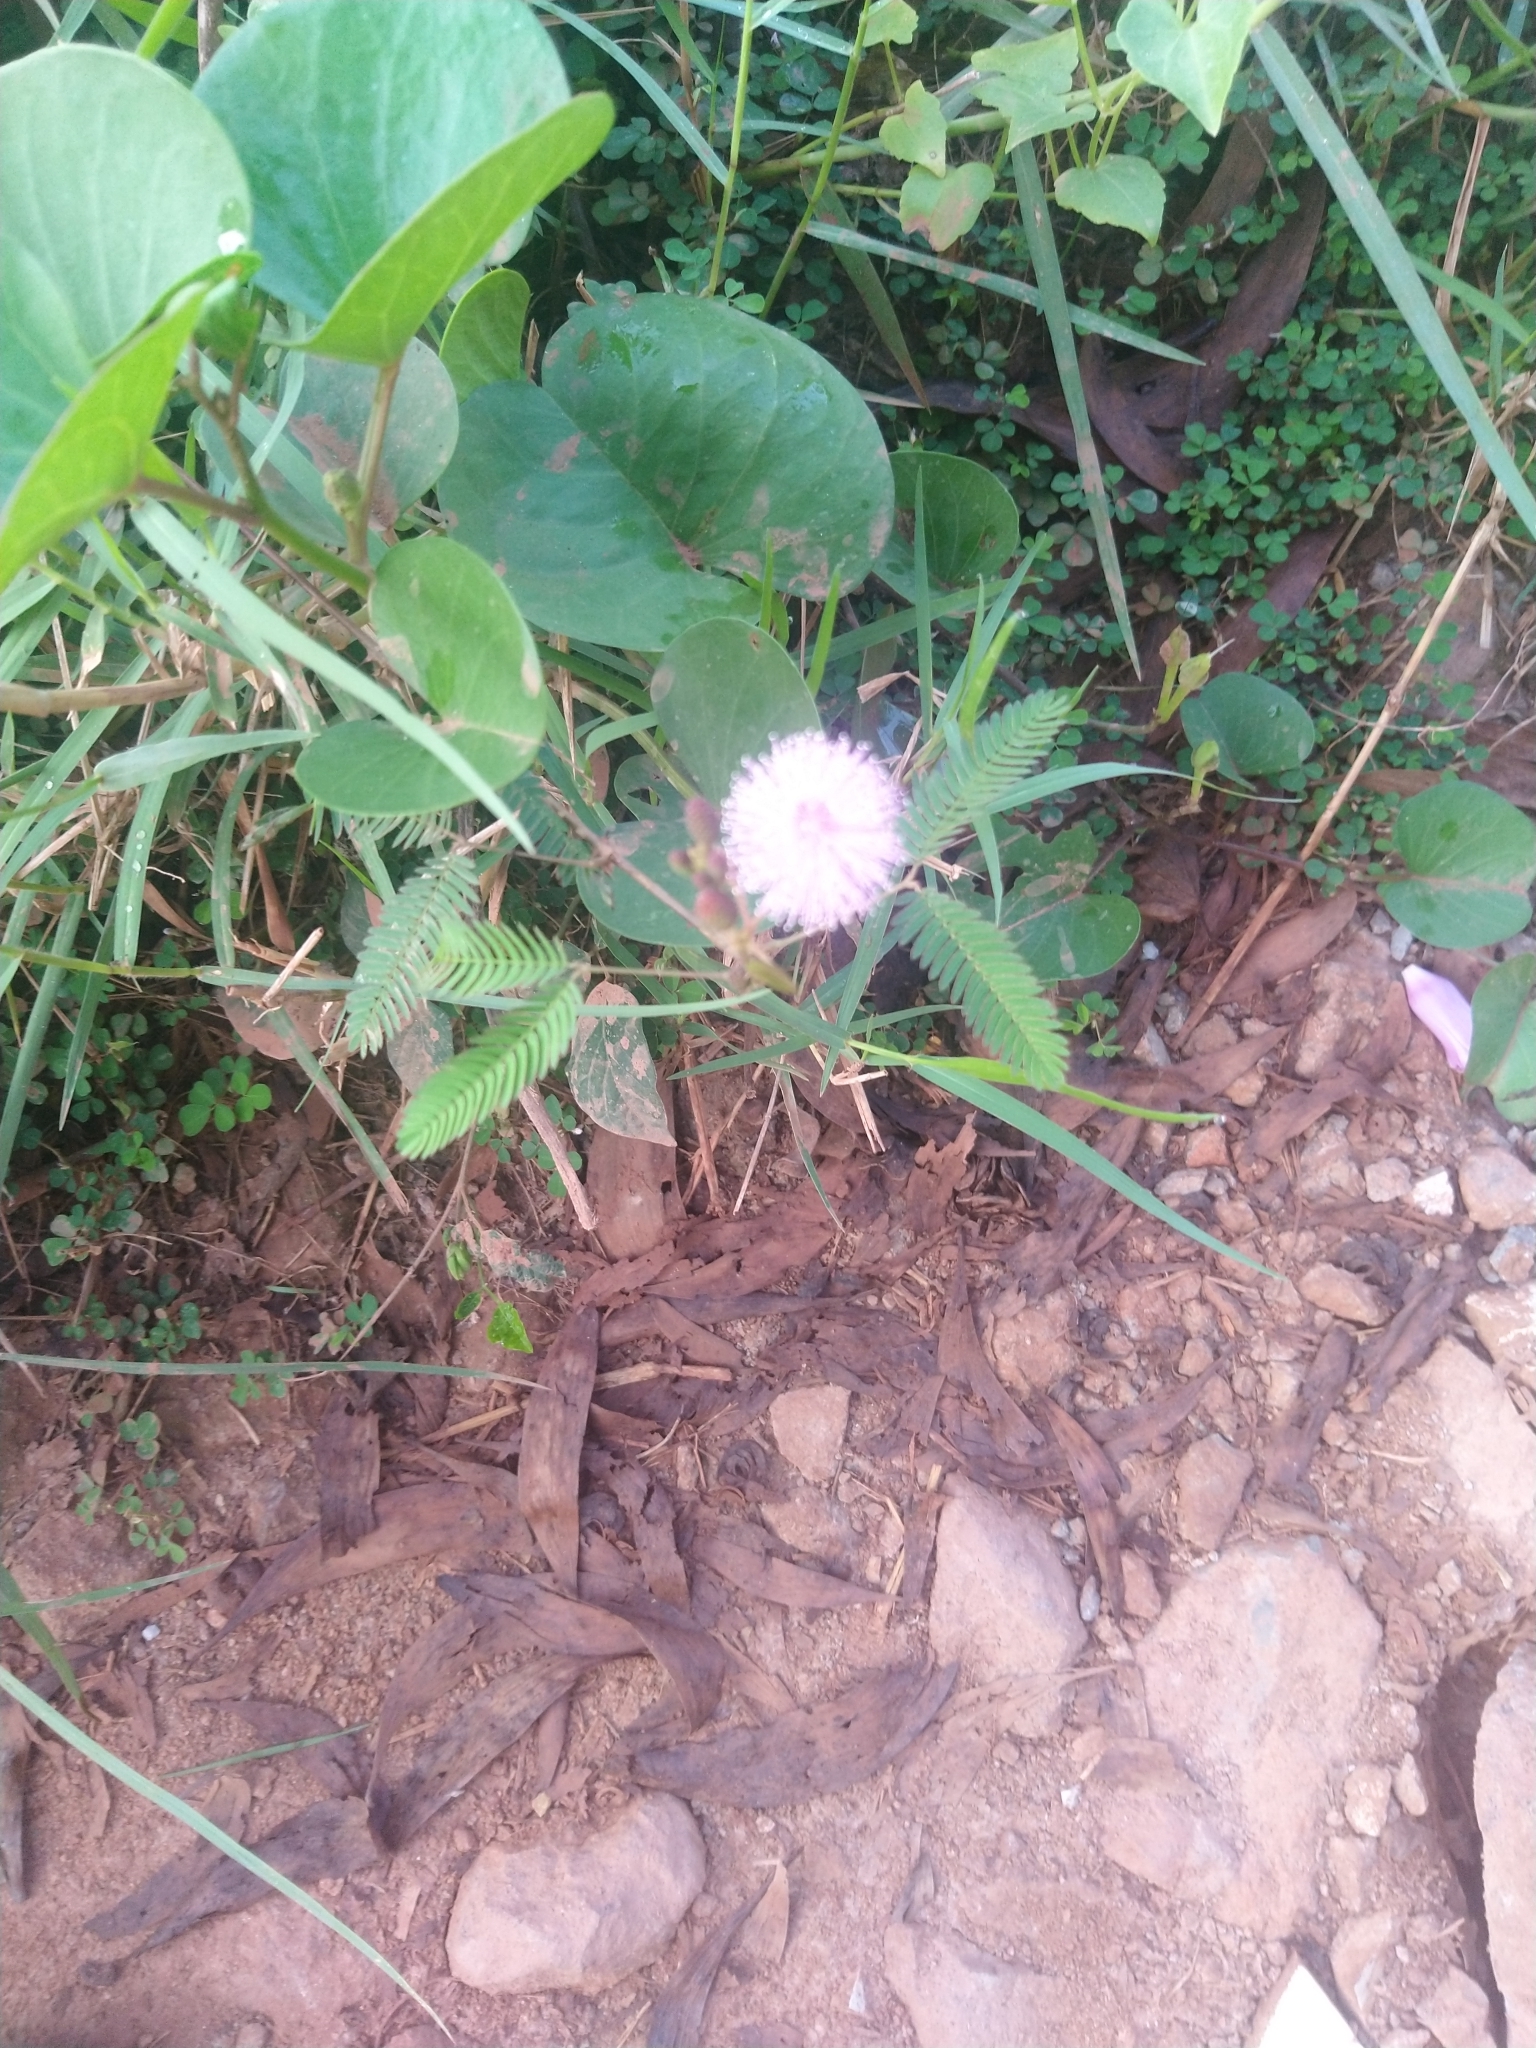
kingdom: Plantae
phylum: Tracheophyta
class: Magnoliopsida
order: Fabales
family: Fabaceae
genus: Mimosa
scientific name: Mimosa pudica
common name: Sensitive plant
